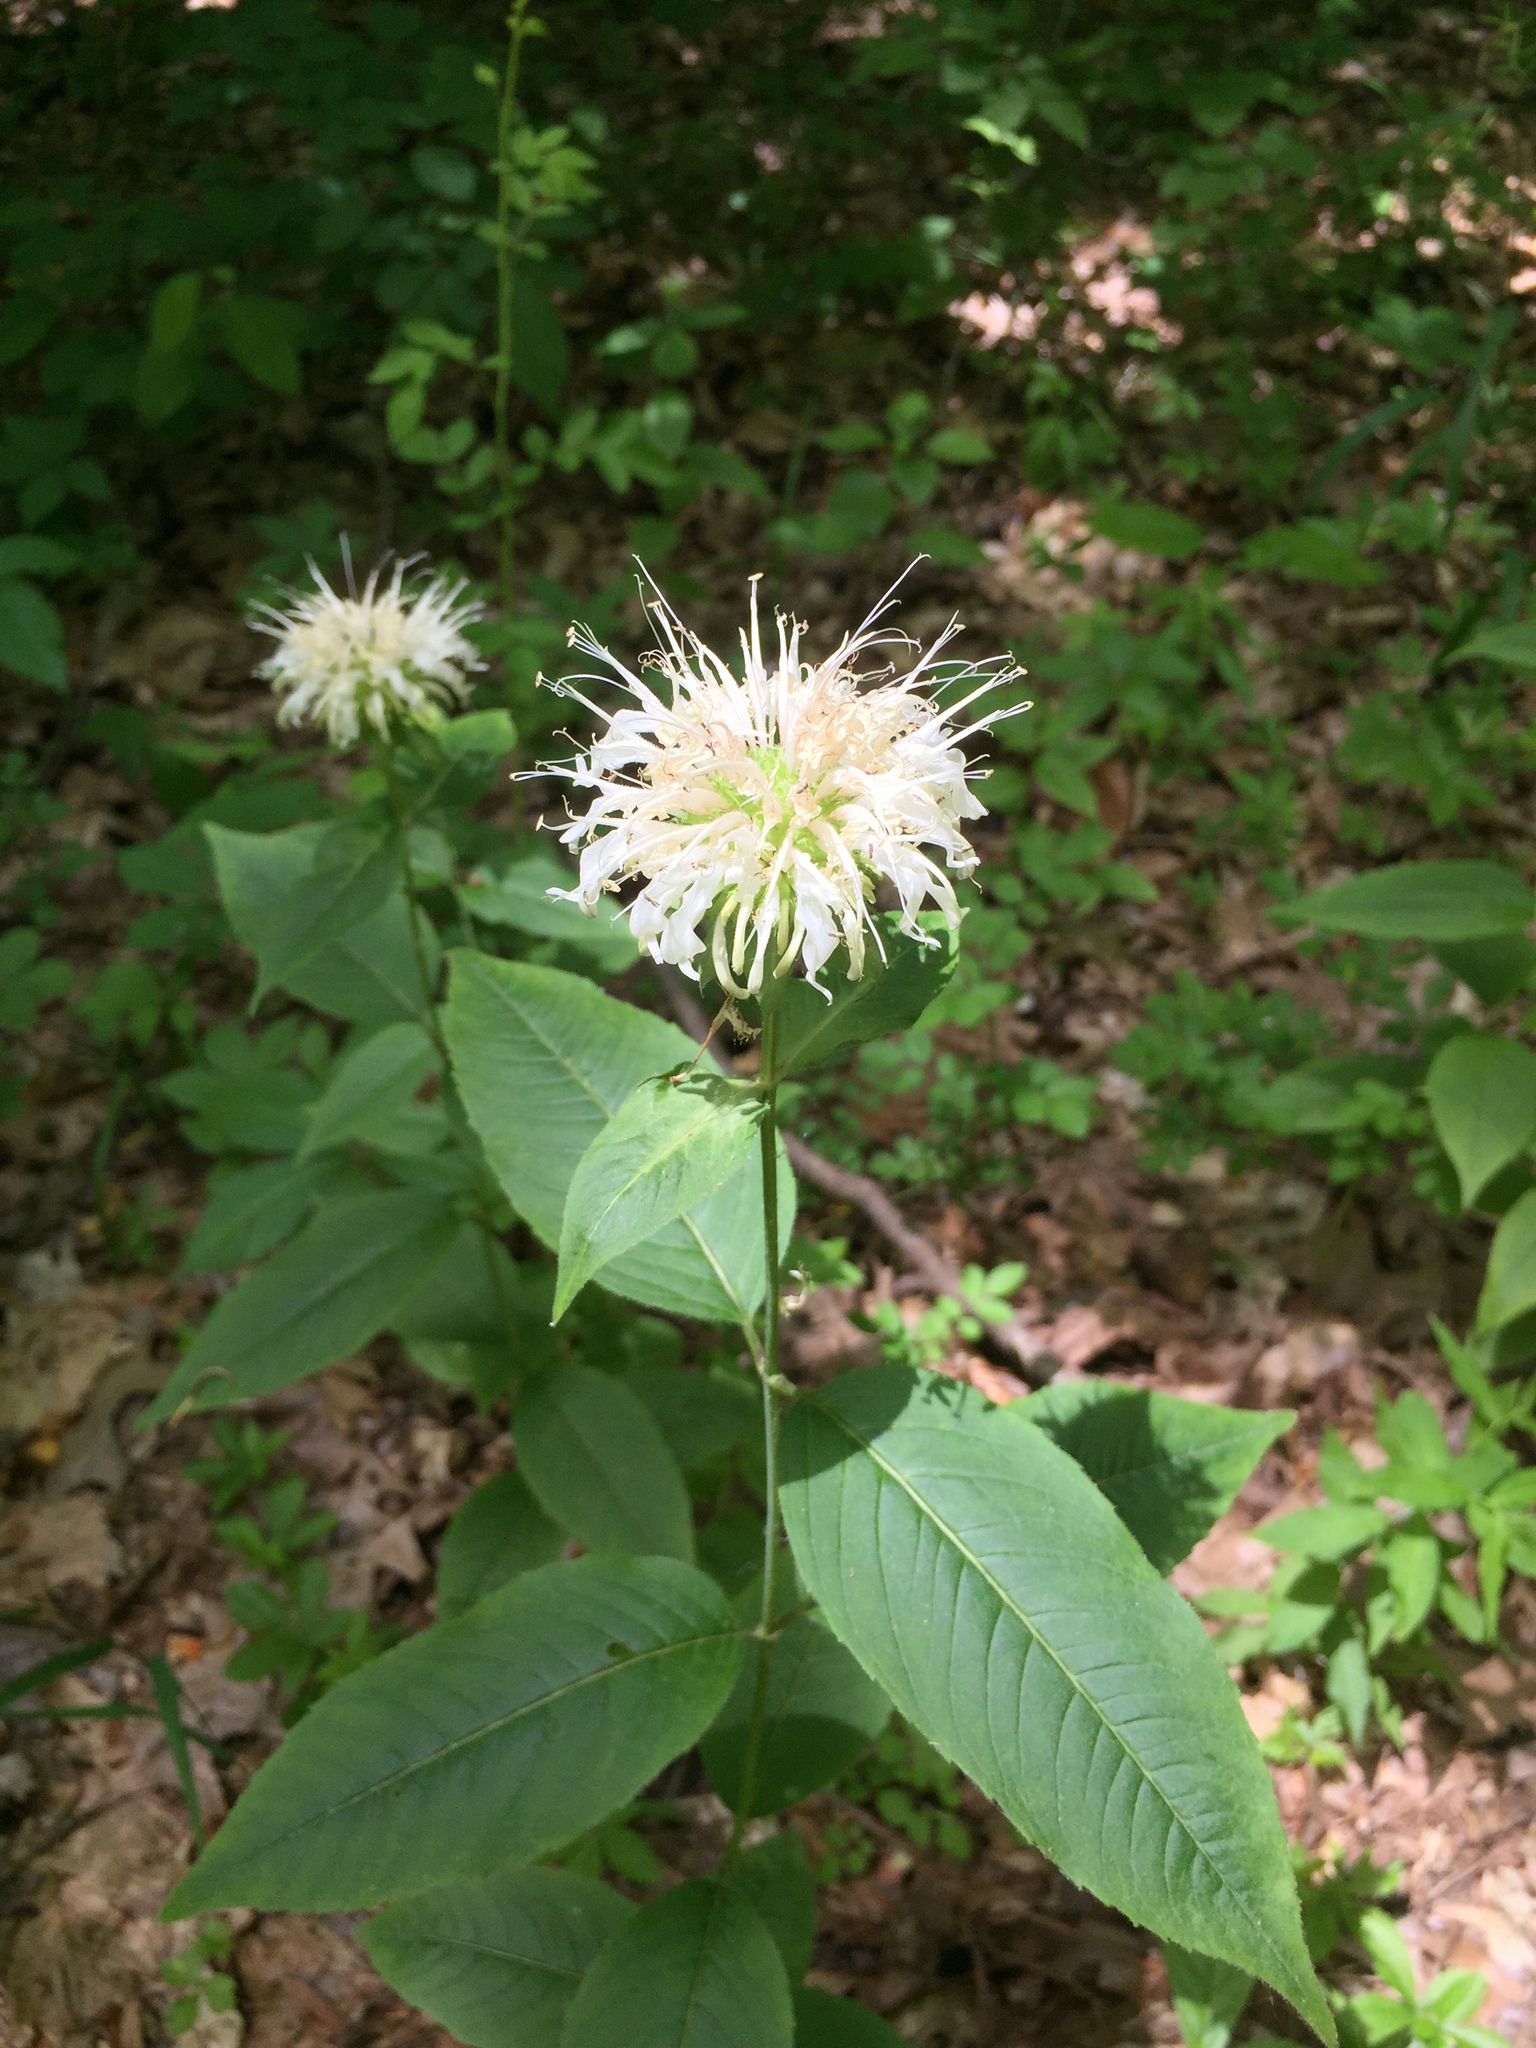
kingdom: Plantae
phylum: Tracheophyta
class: Magnoliopsida
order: Lamiales
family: Lamiaceae
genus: Monarda
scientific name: Monarda clinopodia
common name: Basil beebalm
